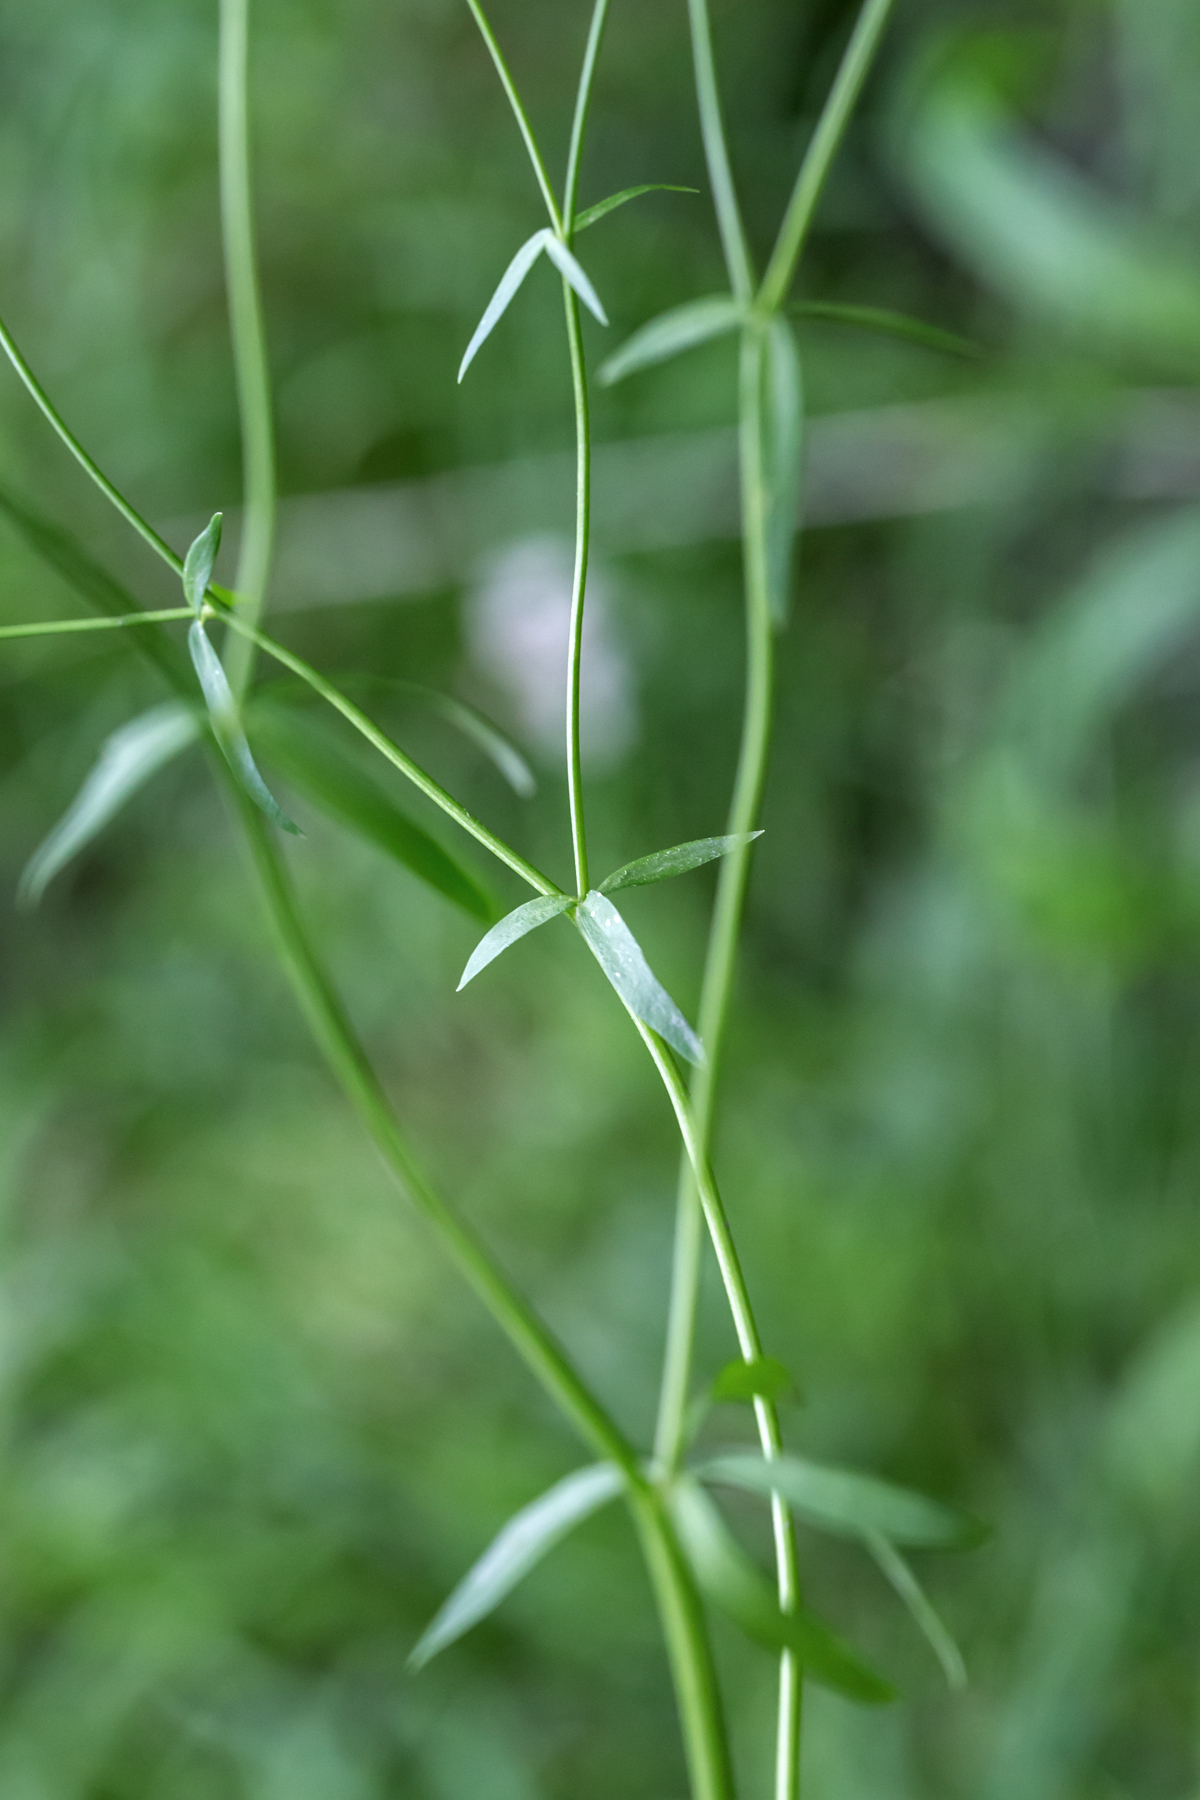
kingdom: Plantae
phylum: Tracheophyta
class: Magnoliopsida
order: Ranunculales
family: Ranunculaceae
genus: Ranunculus
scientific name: Ranunculus abortivus
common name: Early wood buttercup
